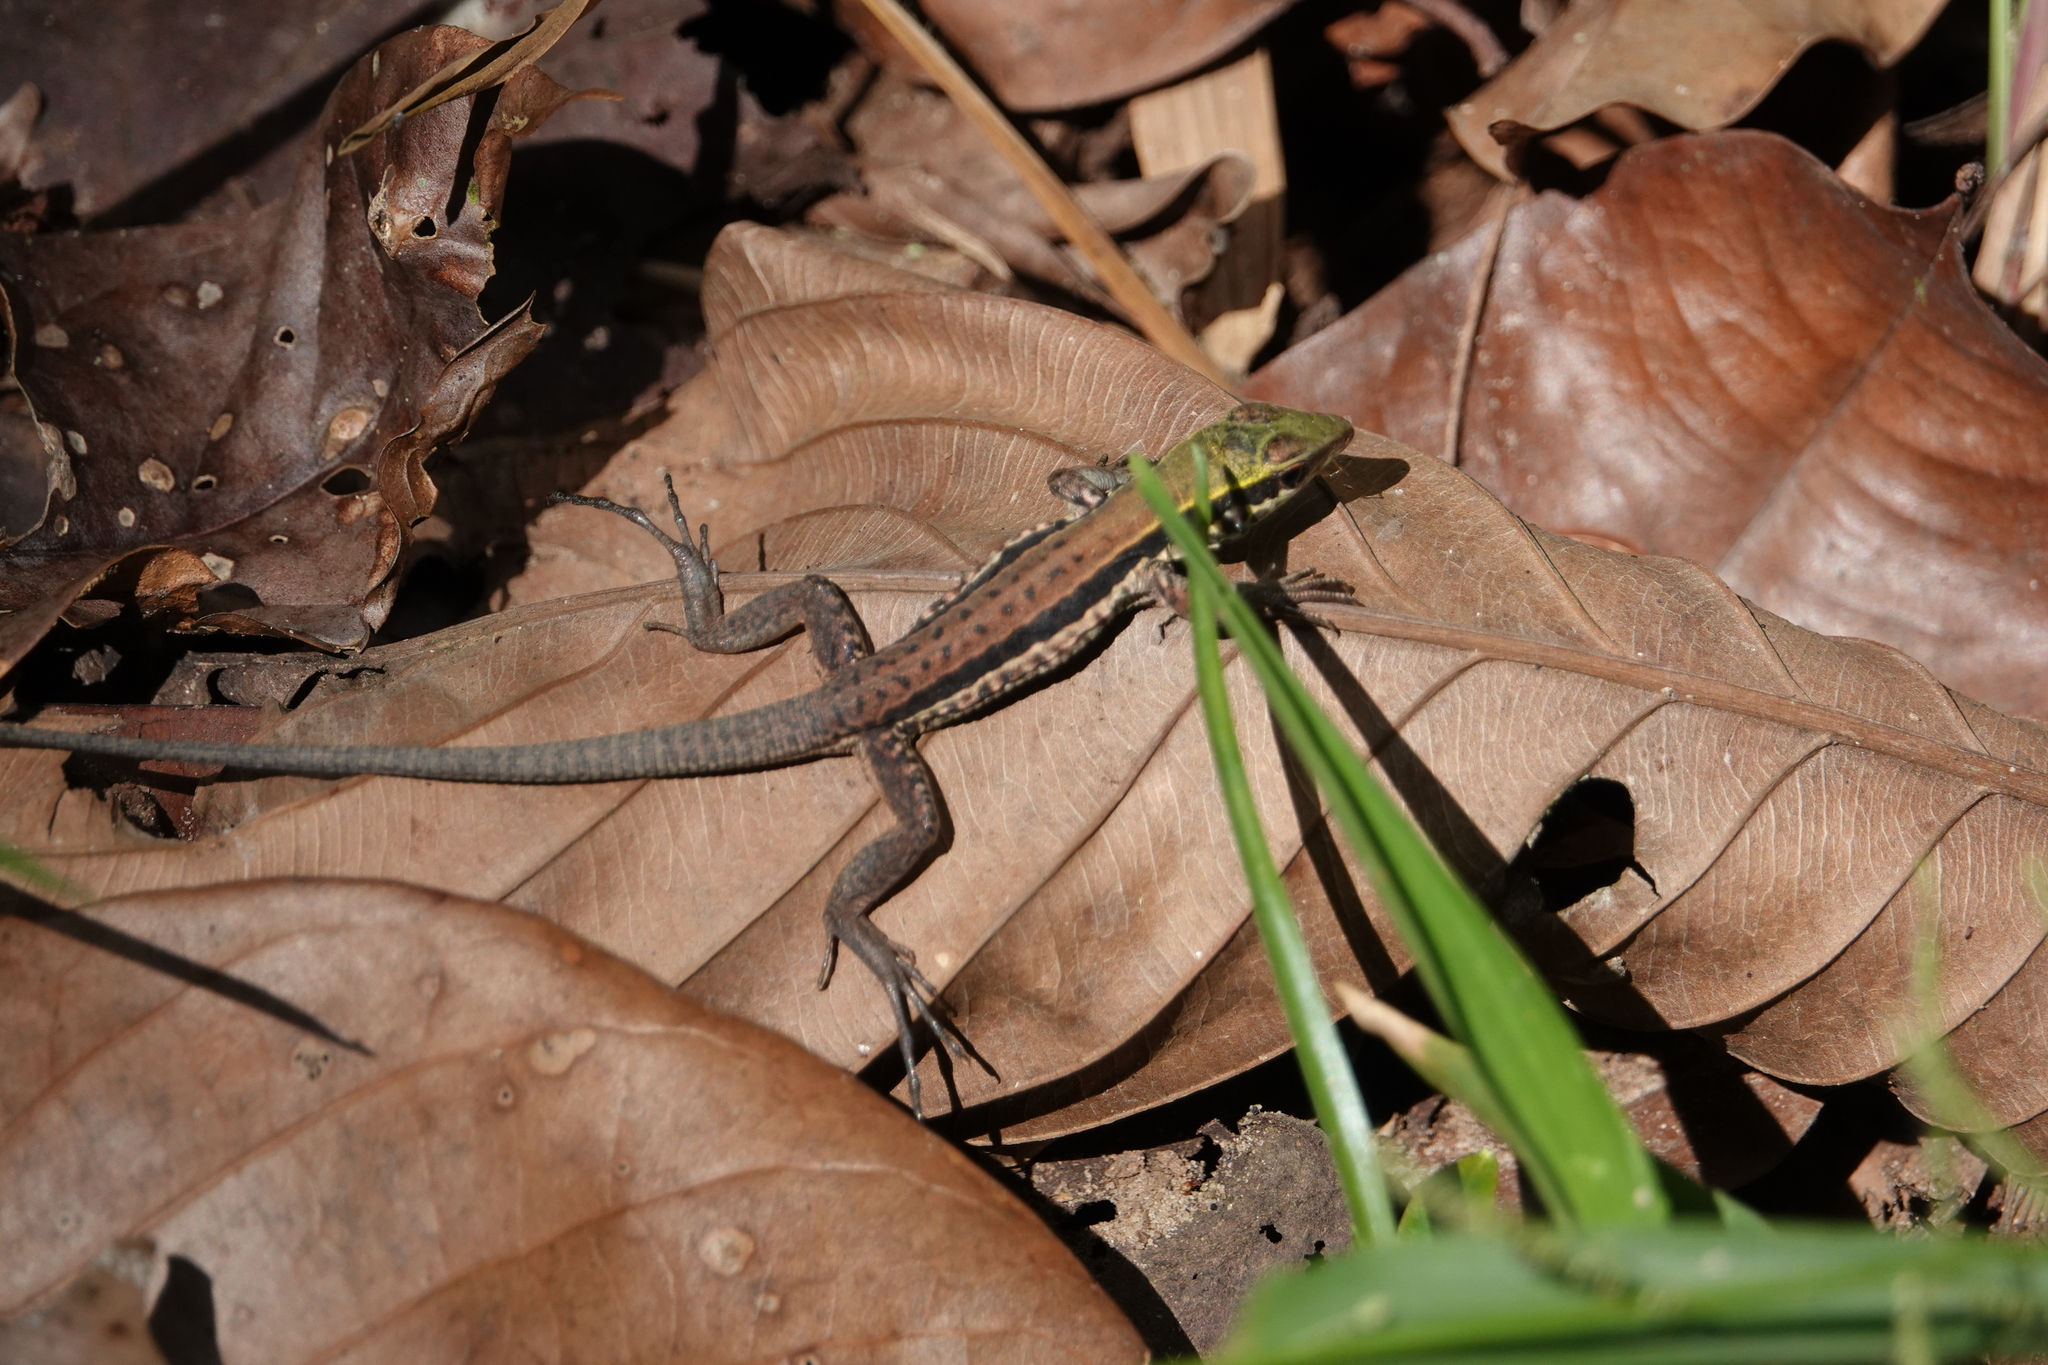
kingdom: Animalia
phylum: Chordata
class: Squamata
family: Teiidae
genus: Ameiva
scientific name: Ameiva ameiva
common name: Giant ameiva
